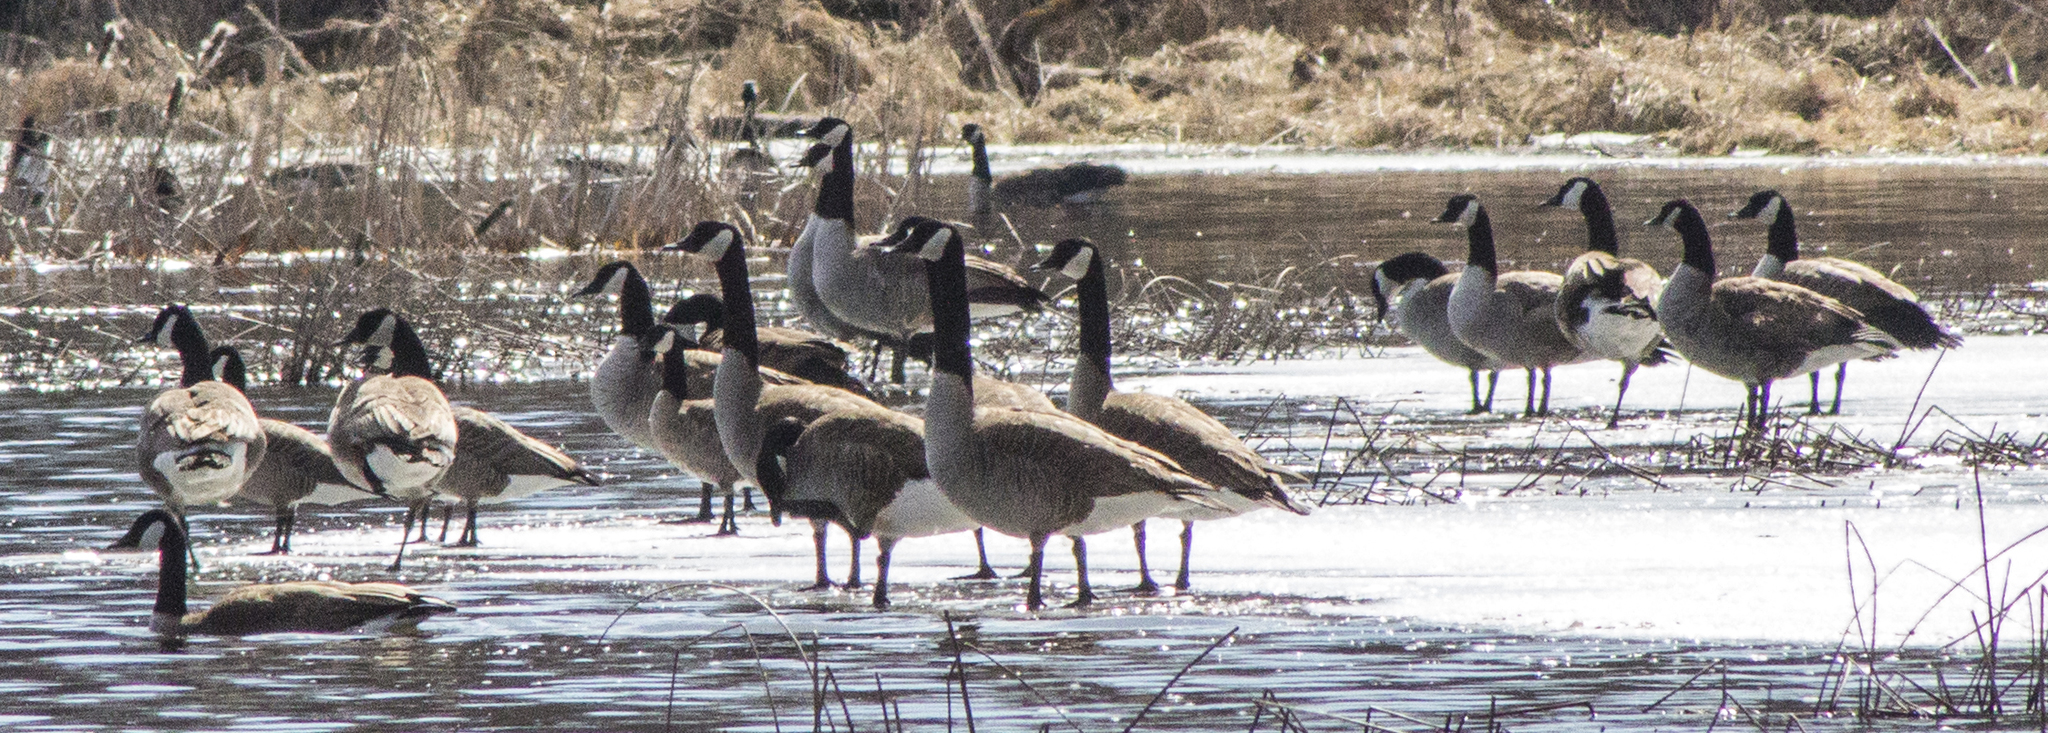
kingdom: Animalia
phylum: Chordata
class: Aves
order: Anseriformes
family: Anatidae
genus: Branta
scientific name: Branta canadensis
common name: Canada goose
